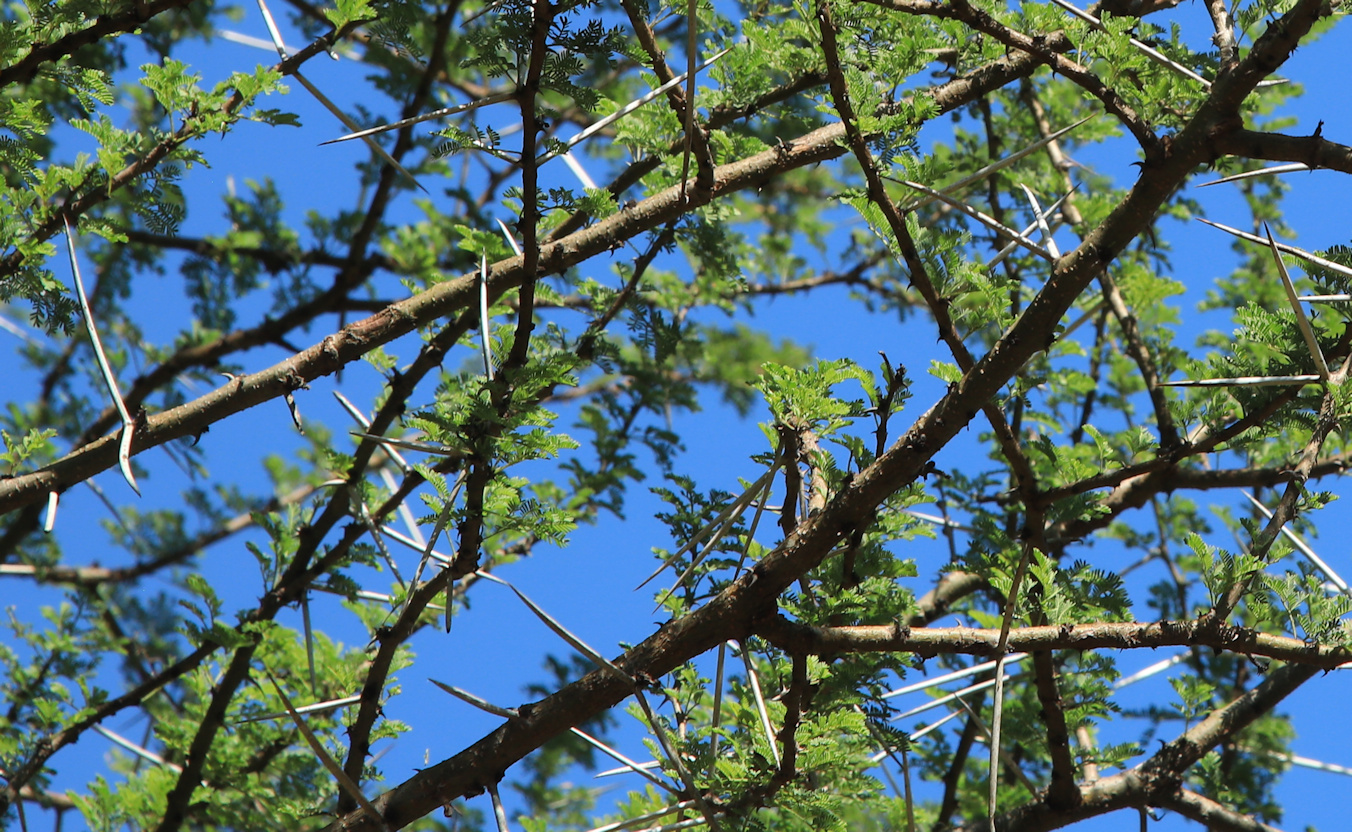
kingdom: Plantae
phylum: Tracheophyta
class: Magnoliopsida
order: Fabales
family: Fabaceae
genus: Vachellia
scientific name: Vachellia tortilis
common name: Umbrella thorn acacia
